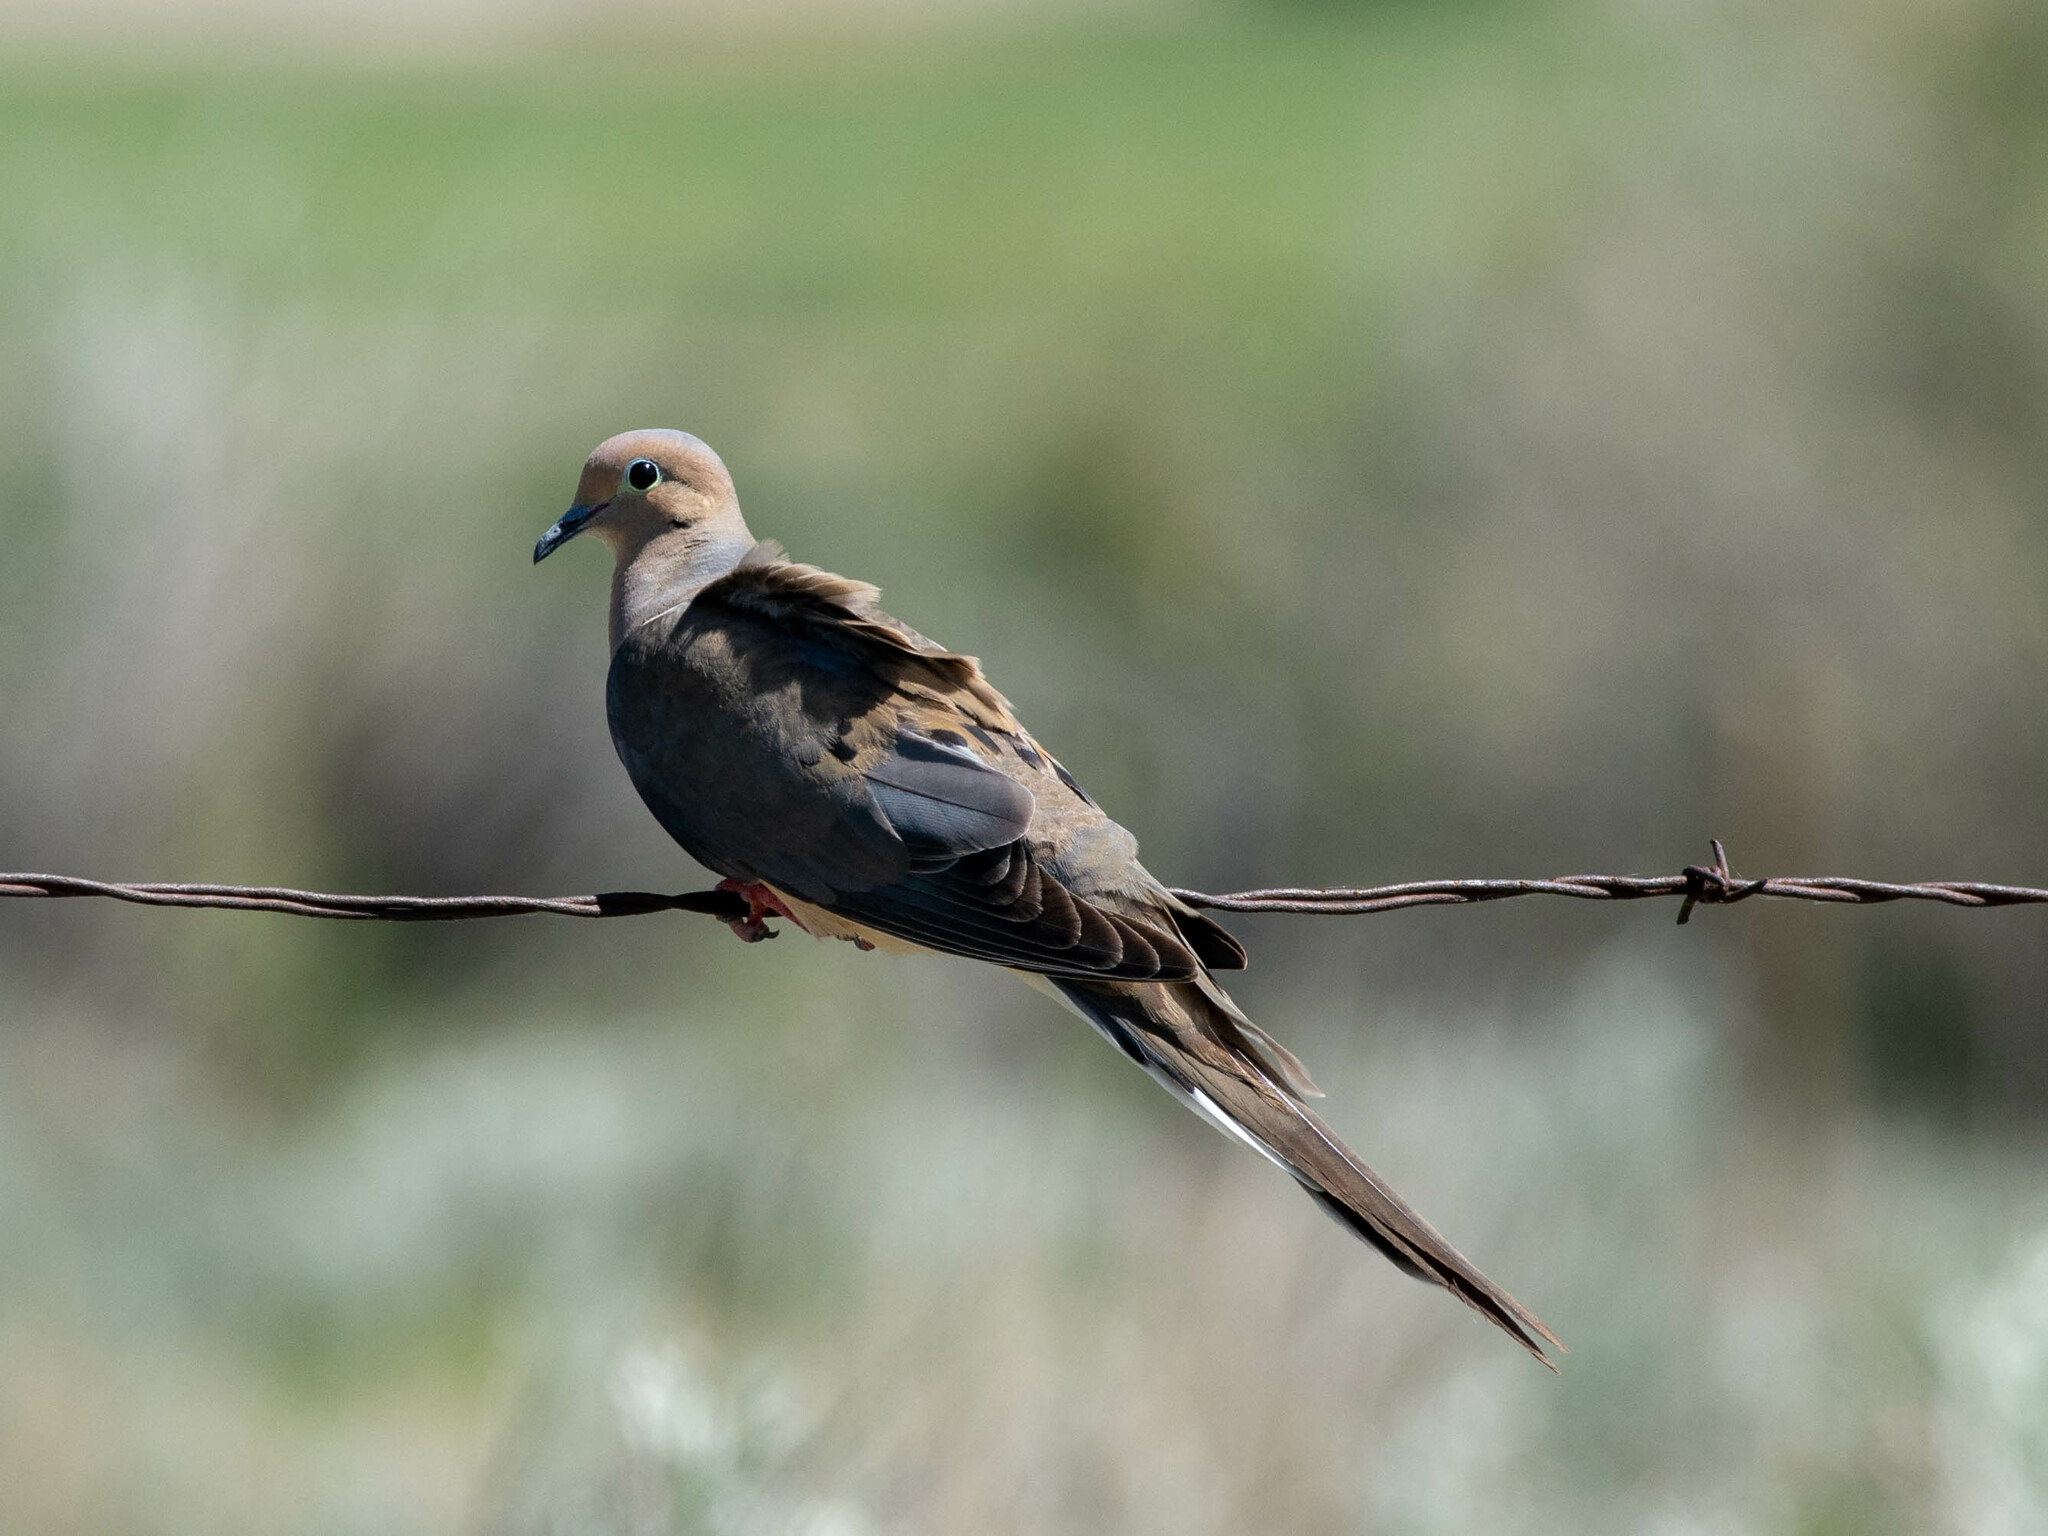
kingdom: Animalia
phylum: Chordata
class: Aves
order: Columbiformes
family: Columbidae
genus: Zenaida
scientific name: Zenaida macroura
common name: Mourning dove
